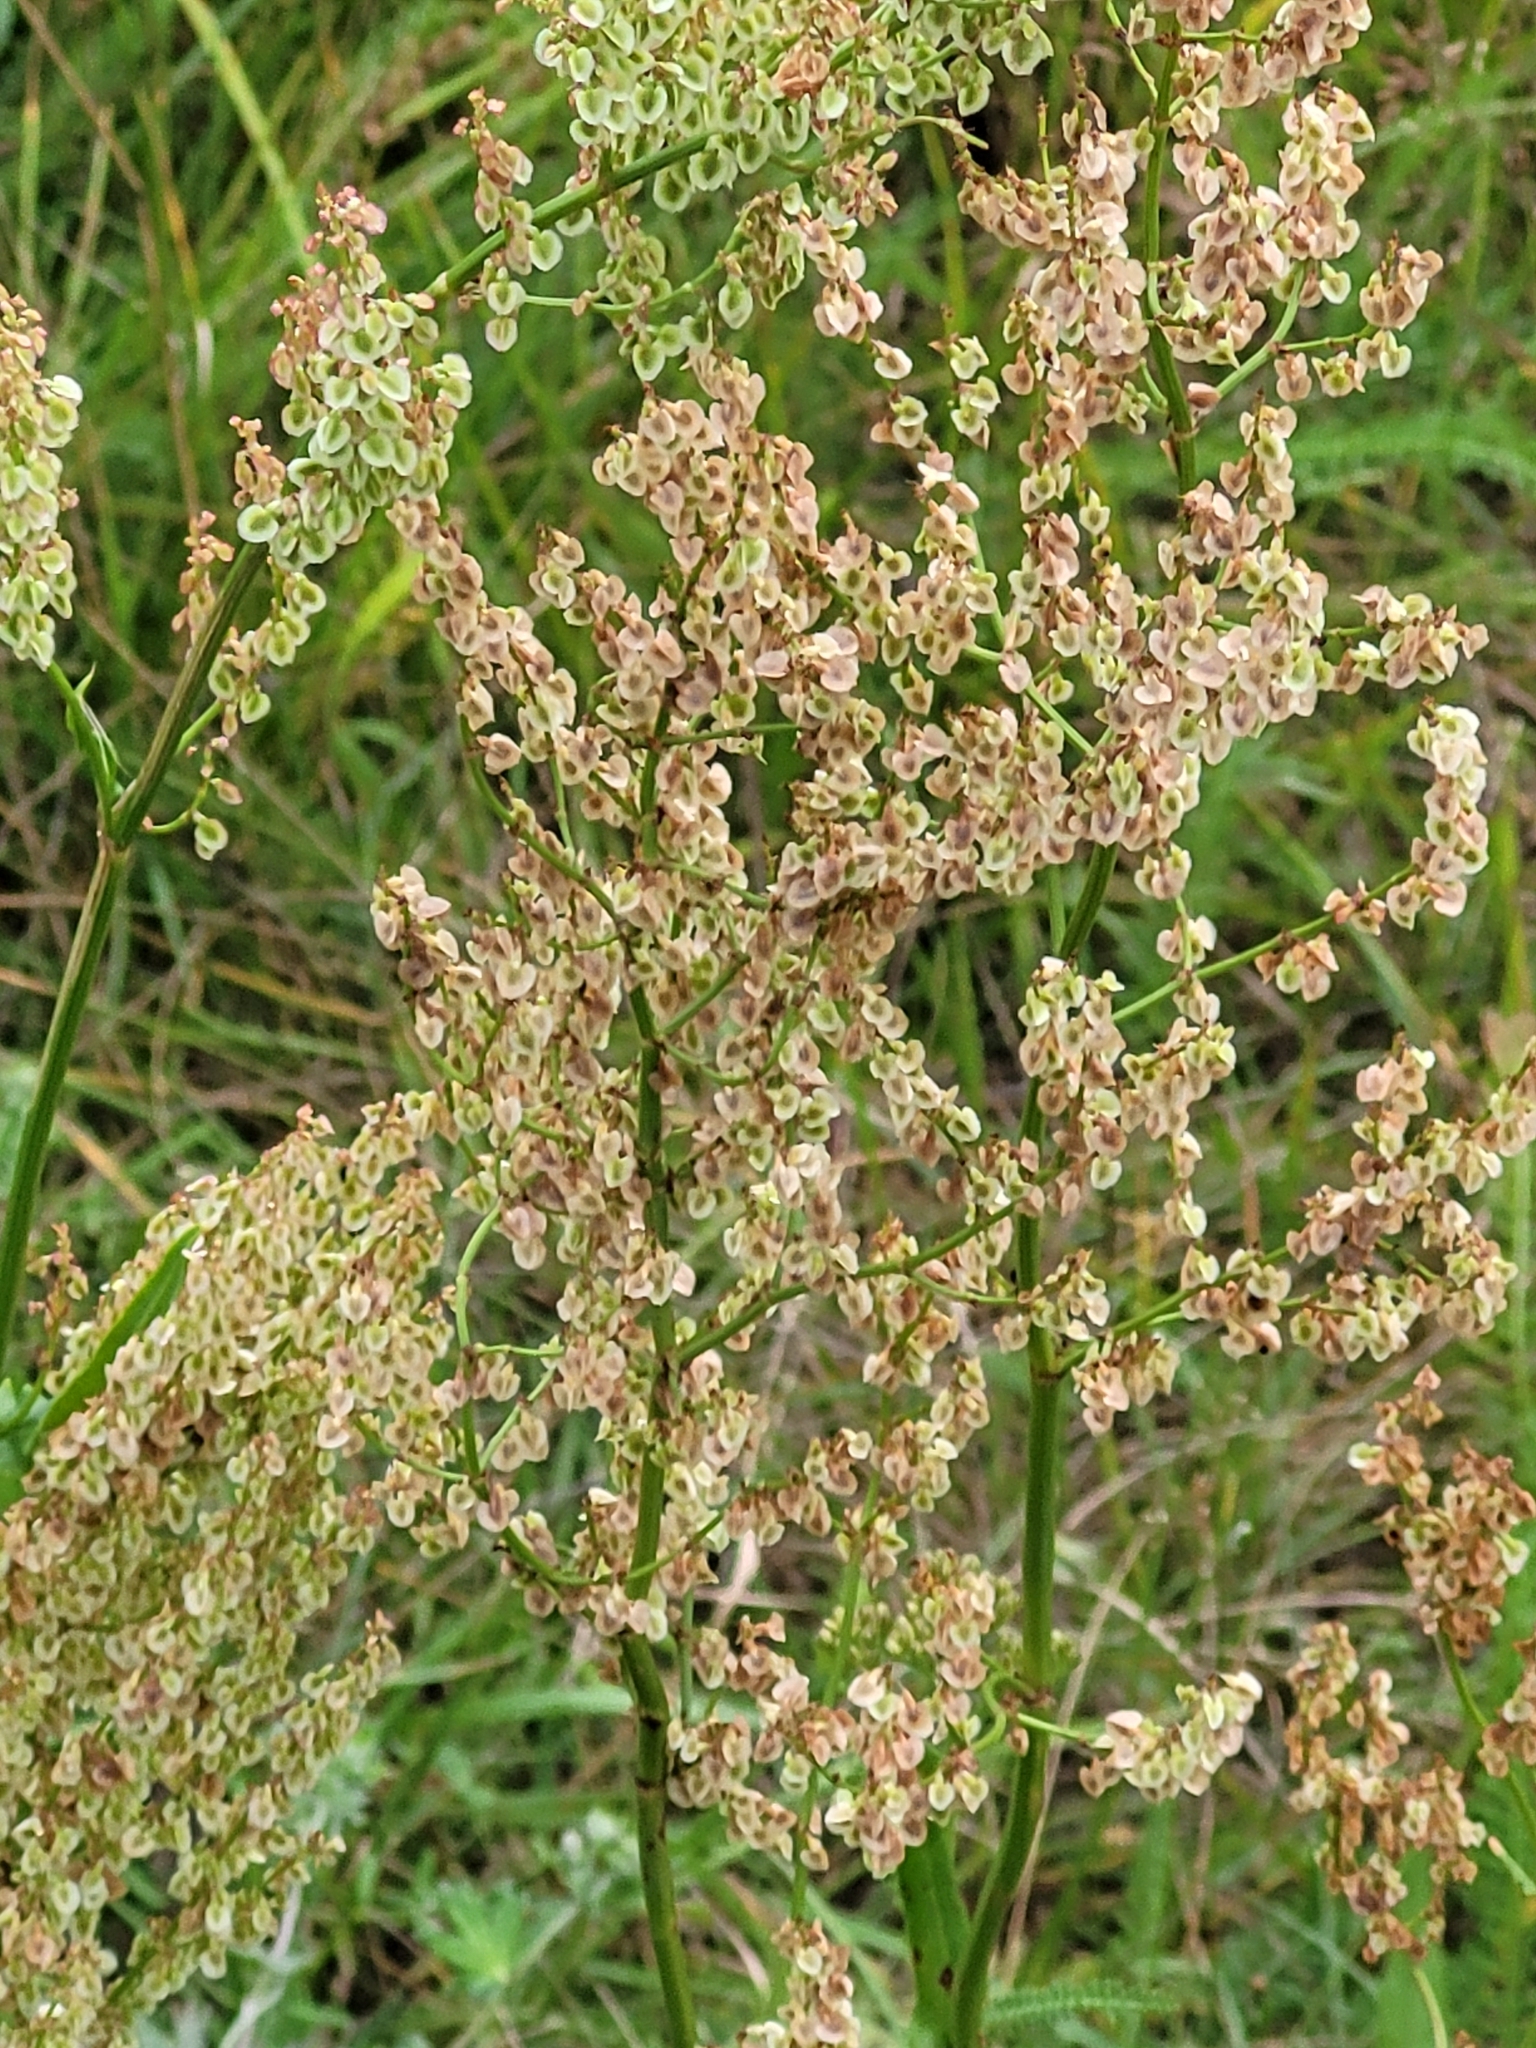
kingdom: Plantae
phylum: Tracheophyta
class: Magnoliopsida
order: Caryophyllales
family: Polygonaceae
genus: Rumex
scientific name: Rumex thyrsiflorus
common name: Garden sorrel
